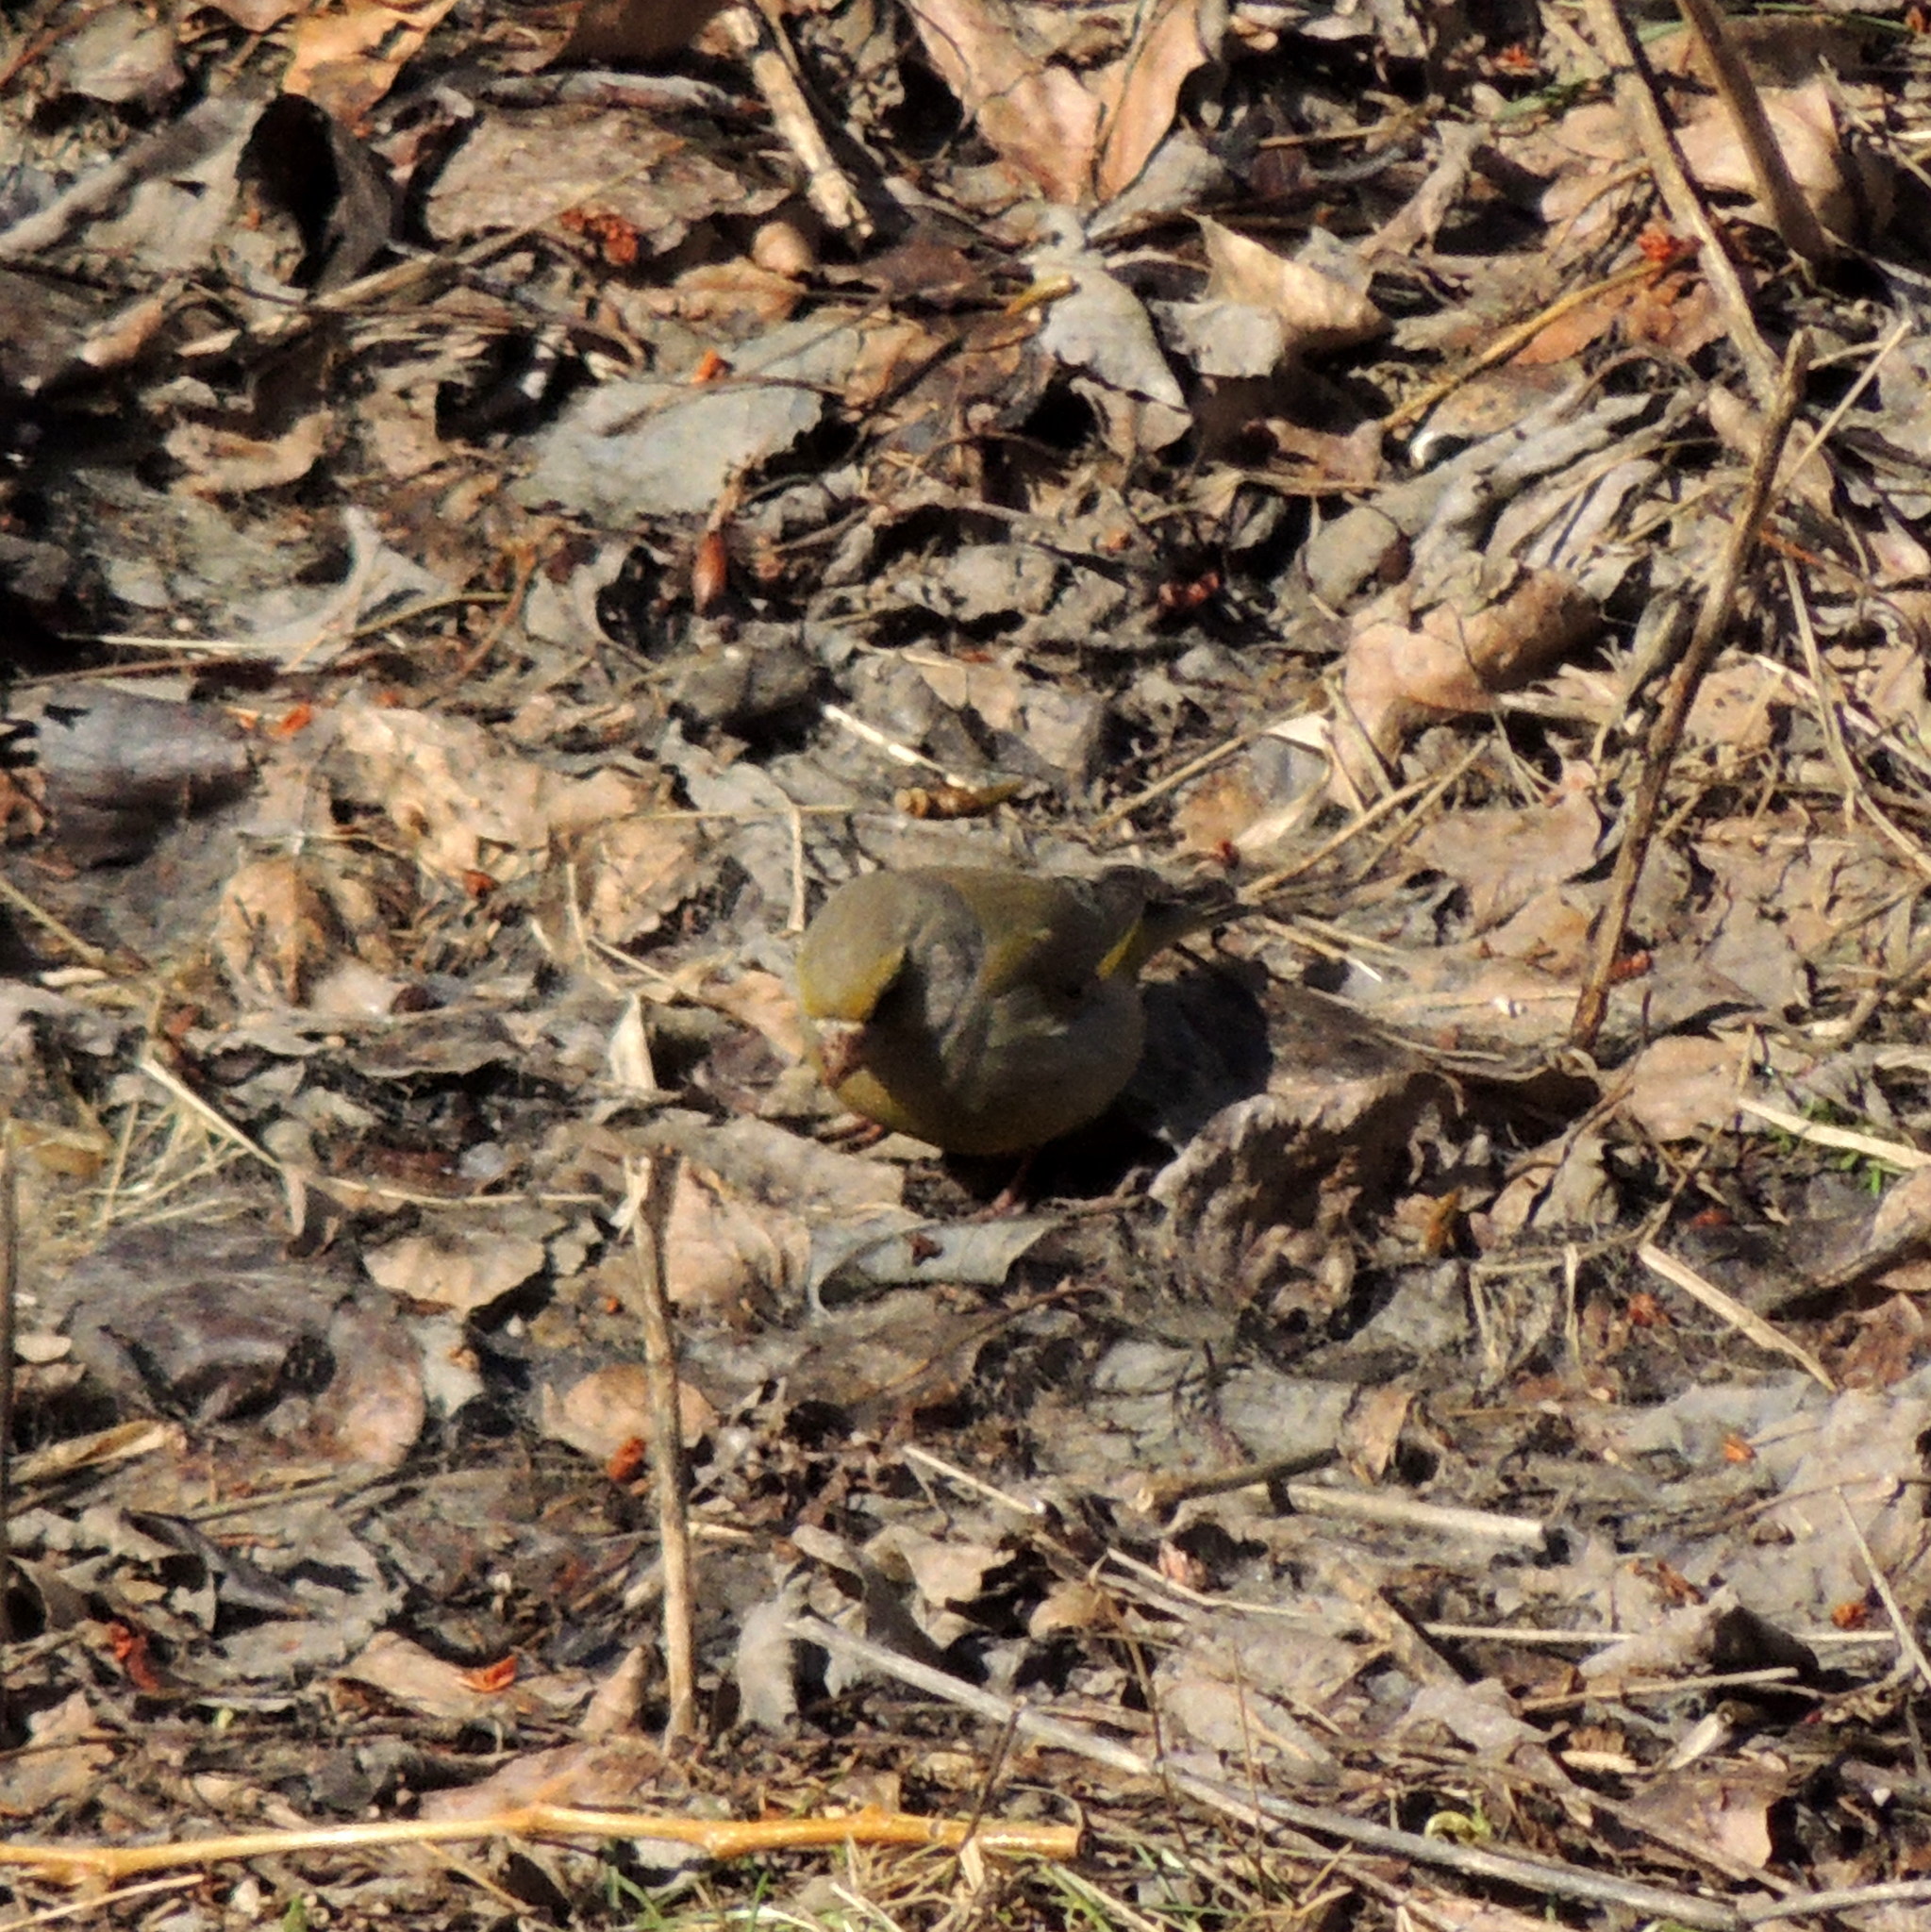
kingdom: Plantae
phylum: Tracheophyta
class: Liliopsida
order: Poales
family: Poaceae
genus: Chloris
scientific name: Chloris chloris
